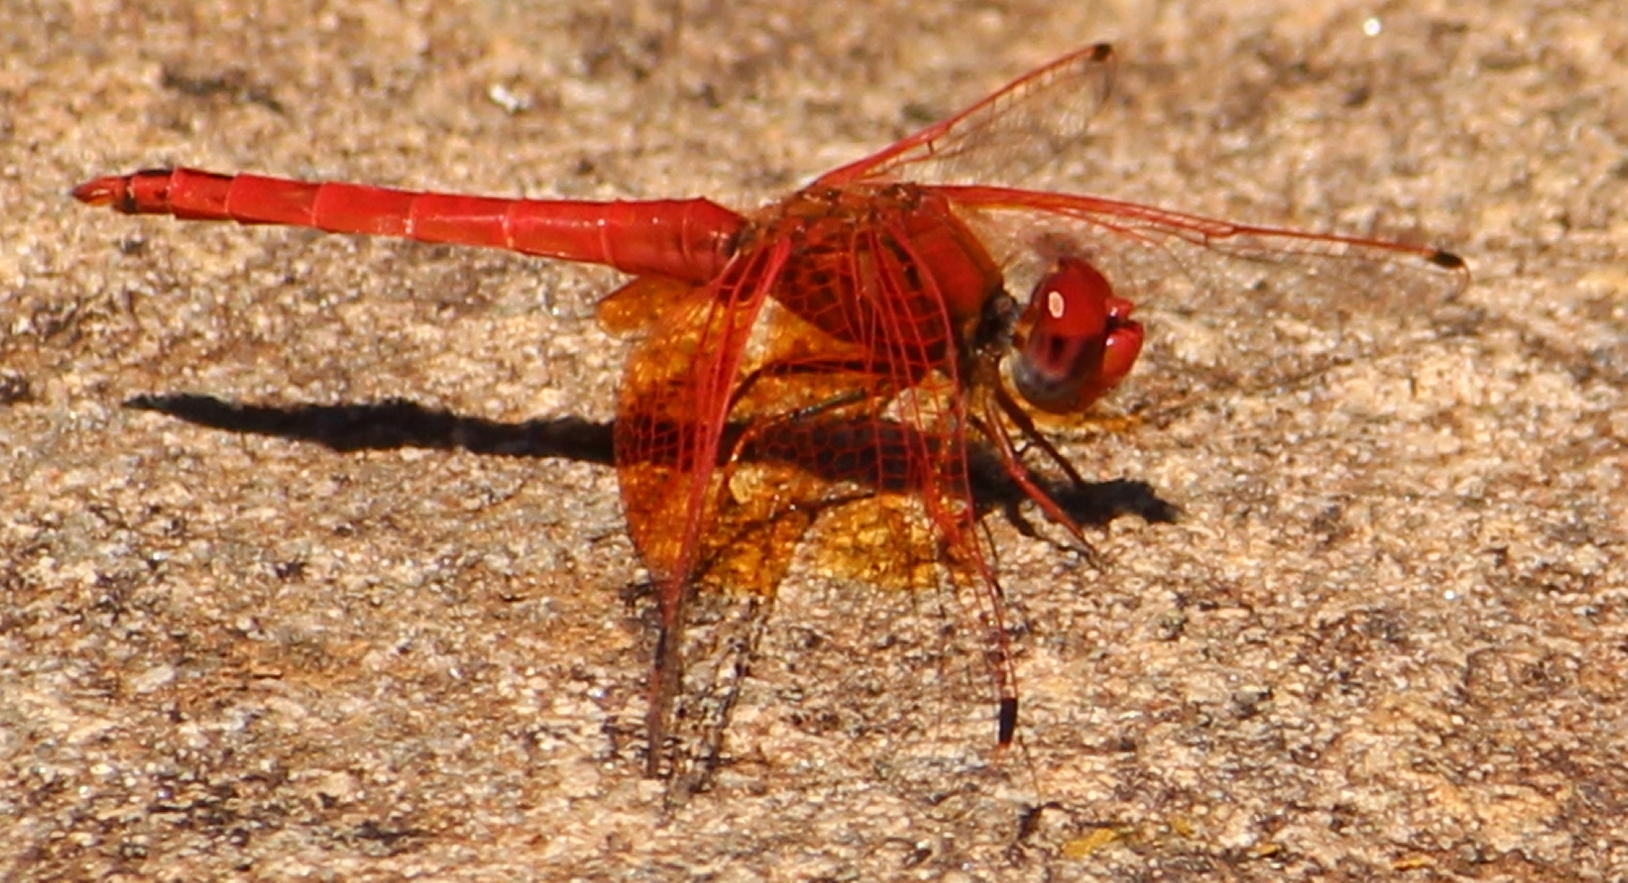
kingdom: Animalia
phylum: Arthropoda
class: Insecta
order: Odonata
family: Libellulidae
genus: Trithemis
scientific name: Trithemis kirbyi
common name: Kirby's dropwing
